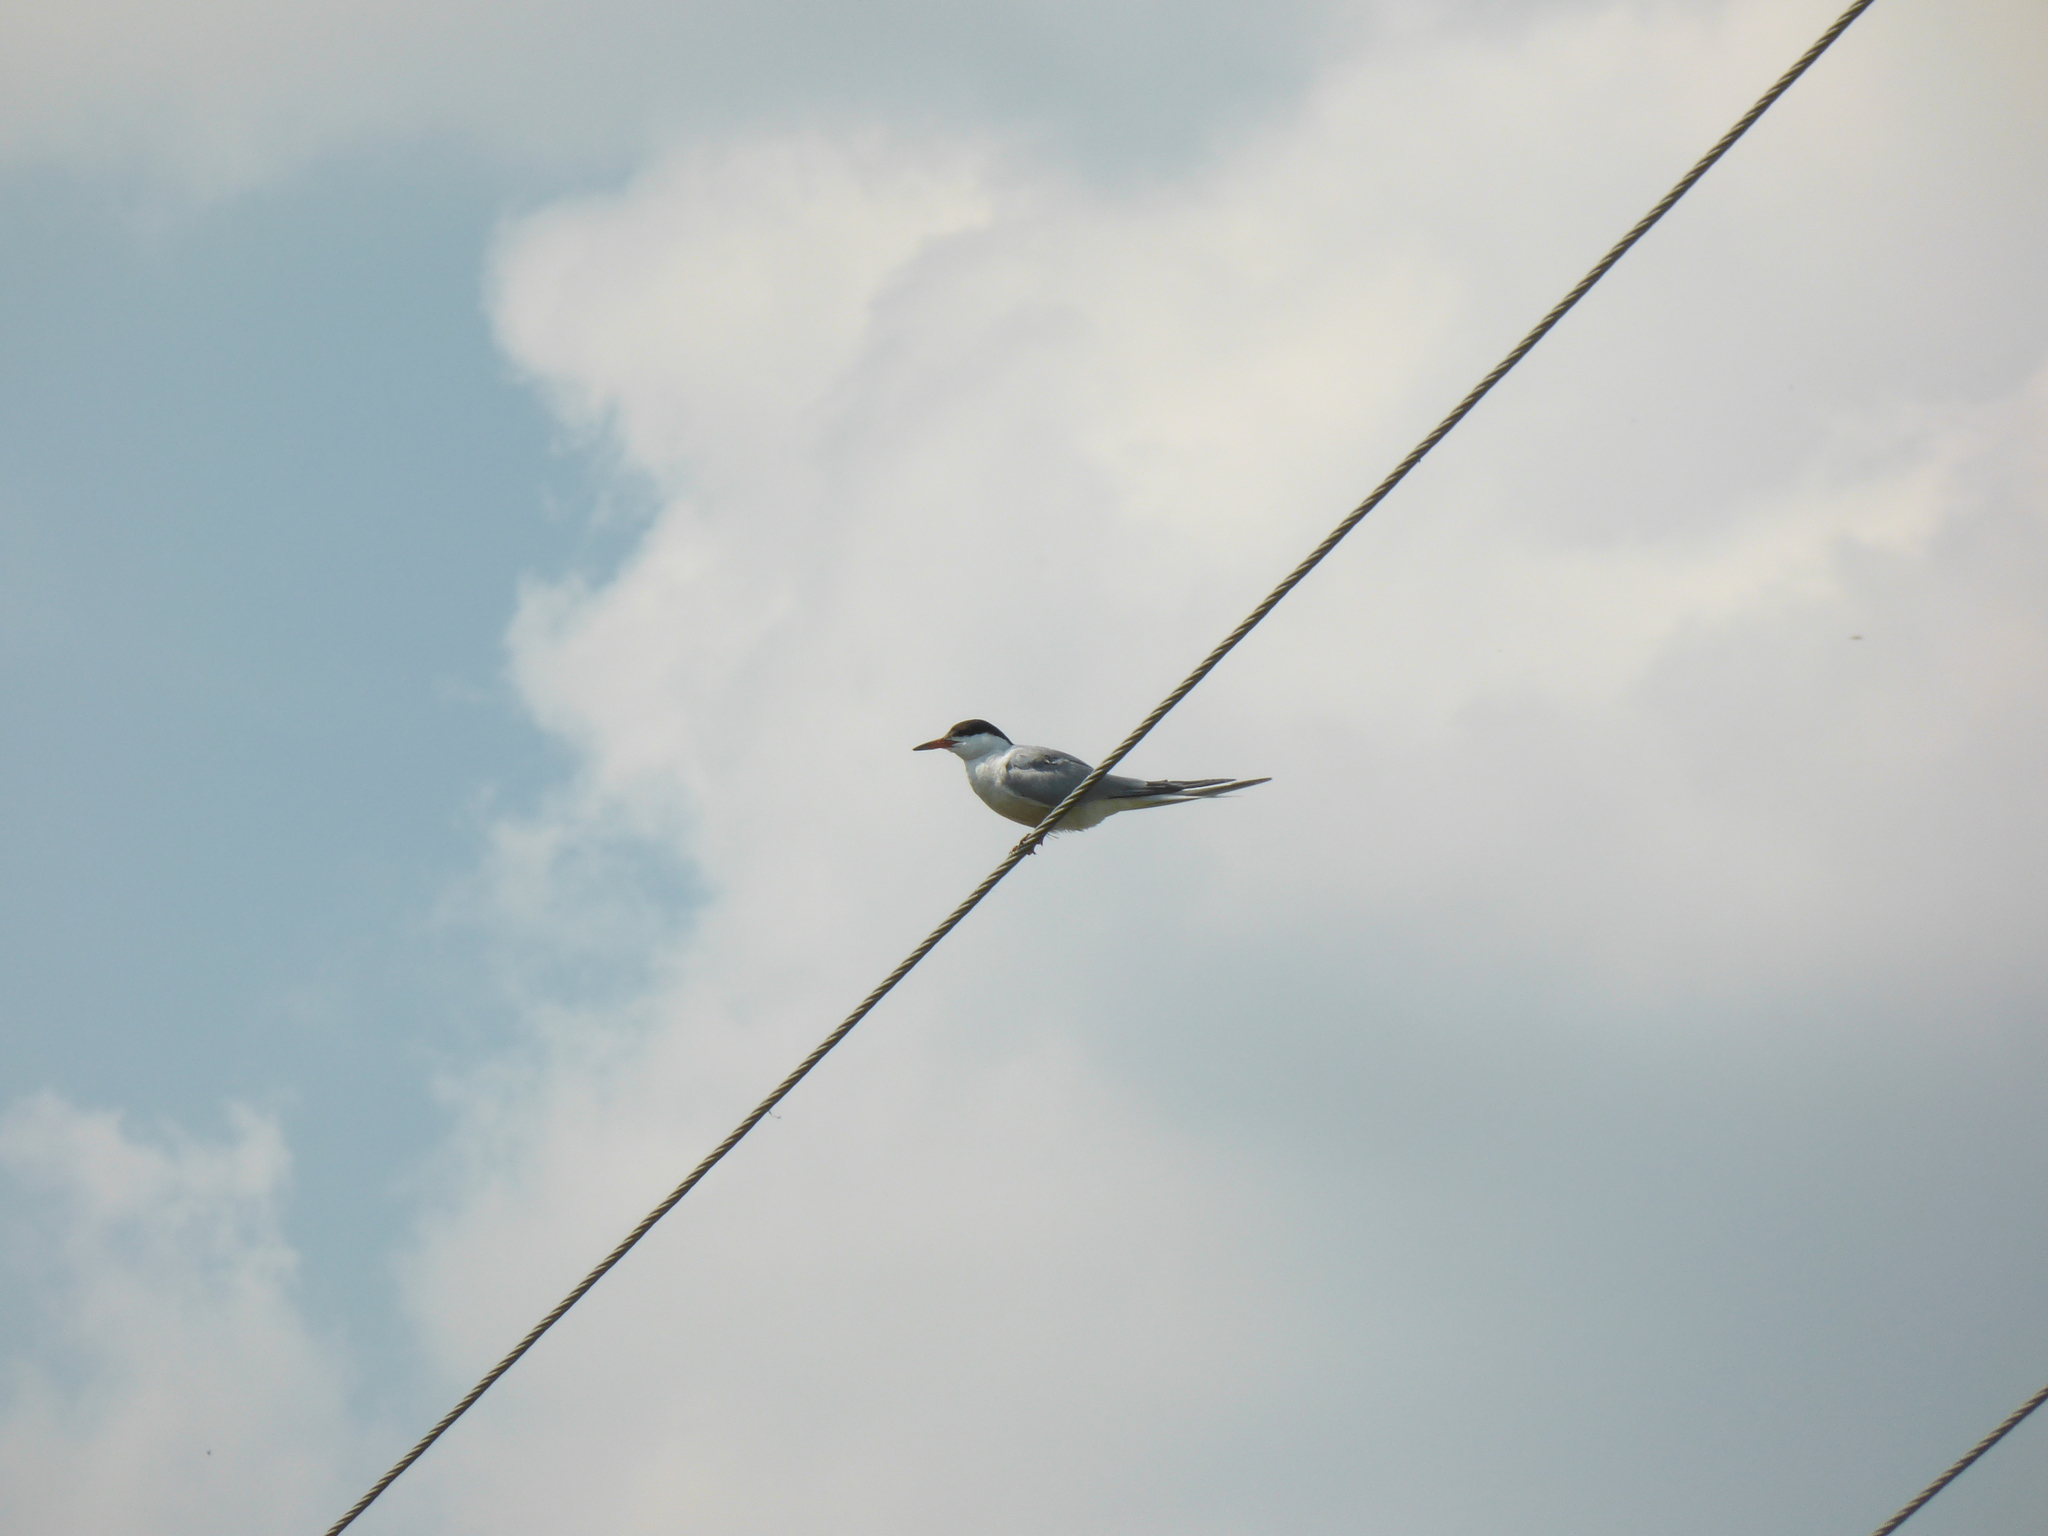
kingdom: Animalia
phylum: Chordata
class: Aves
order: Charadriiformes
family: Laridae
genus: Sterna
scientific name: Sterna hirundo
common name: Common tern
